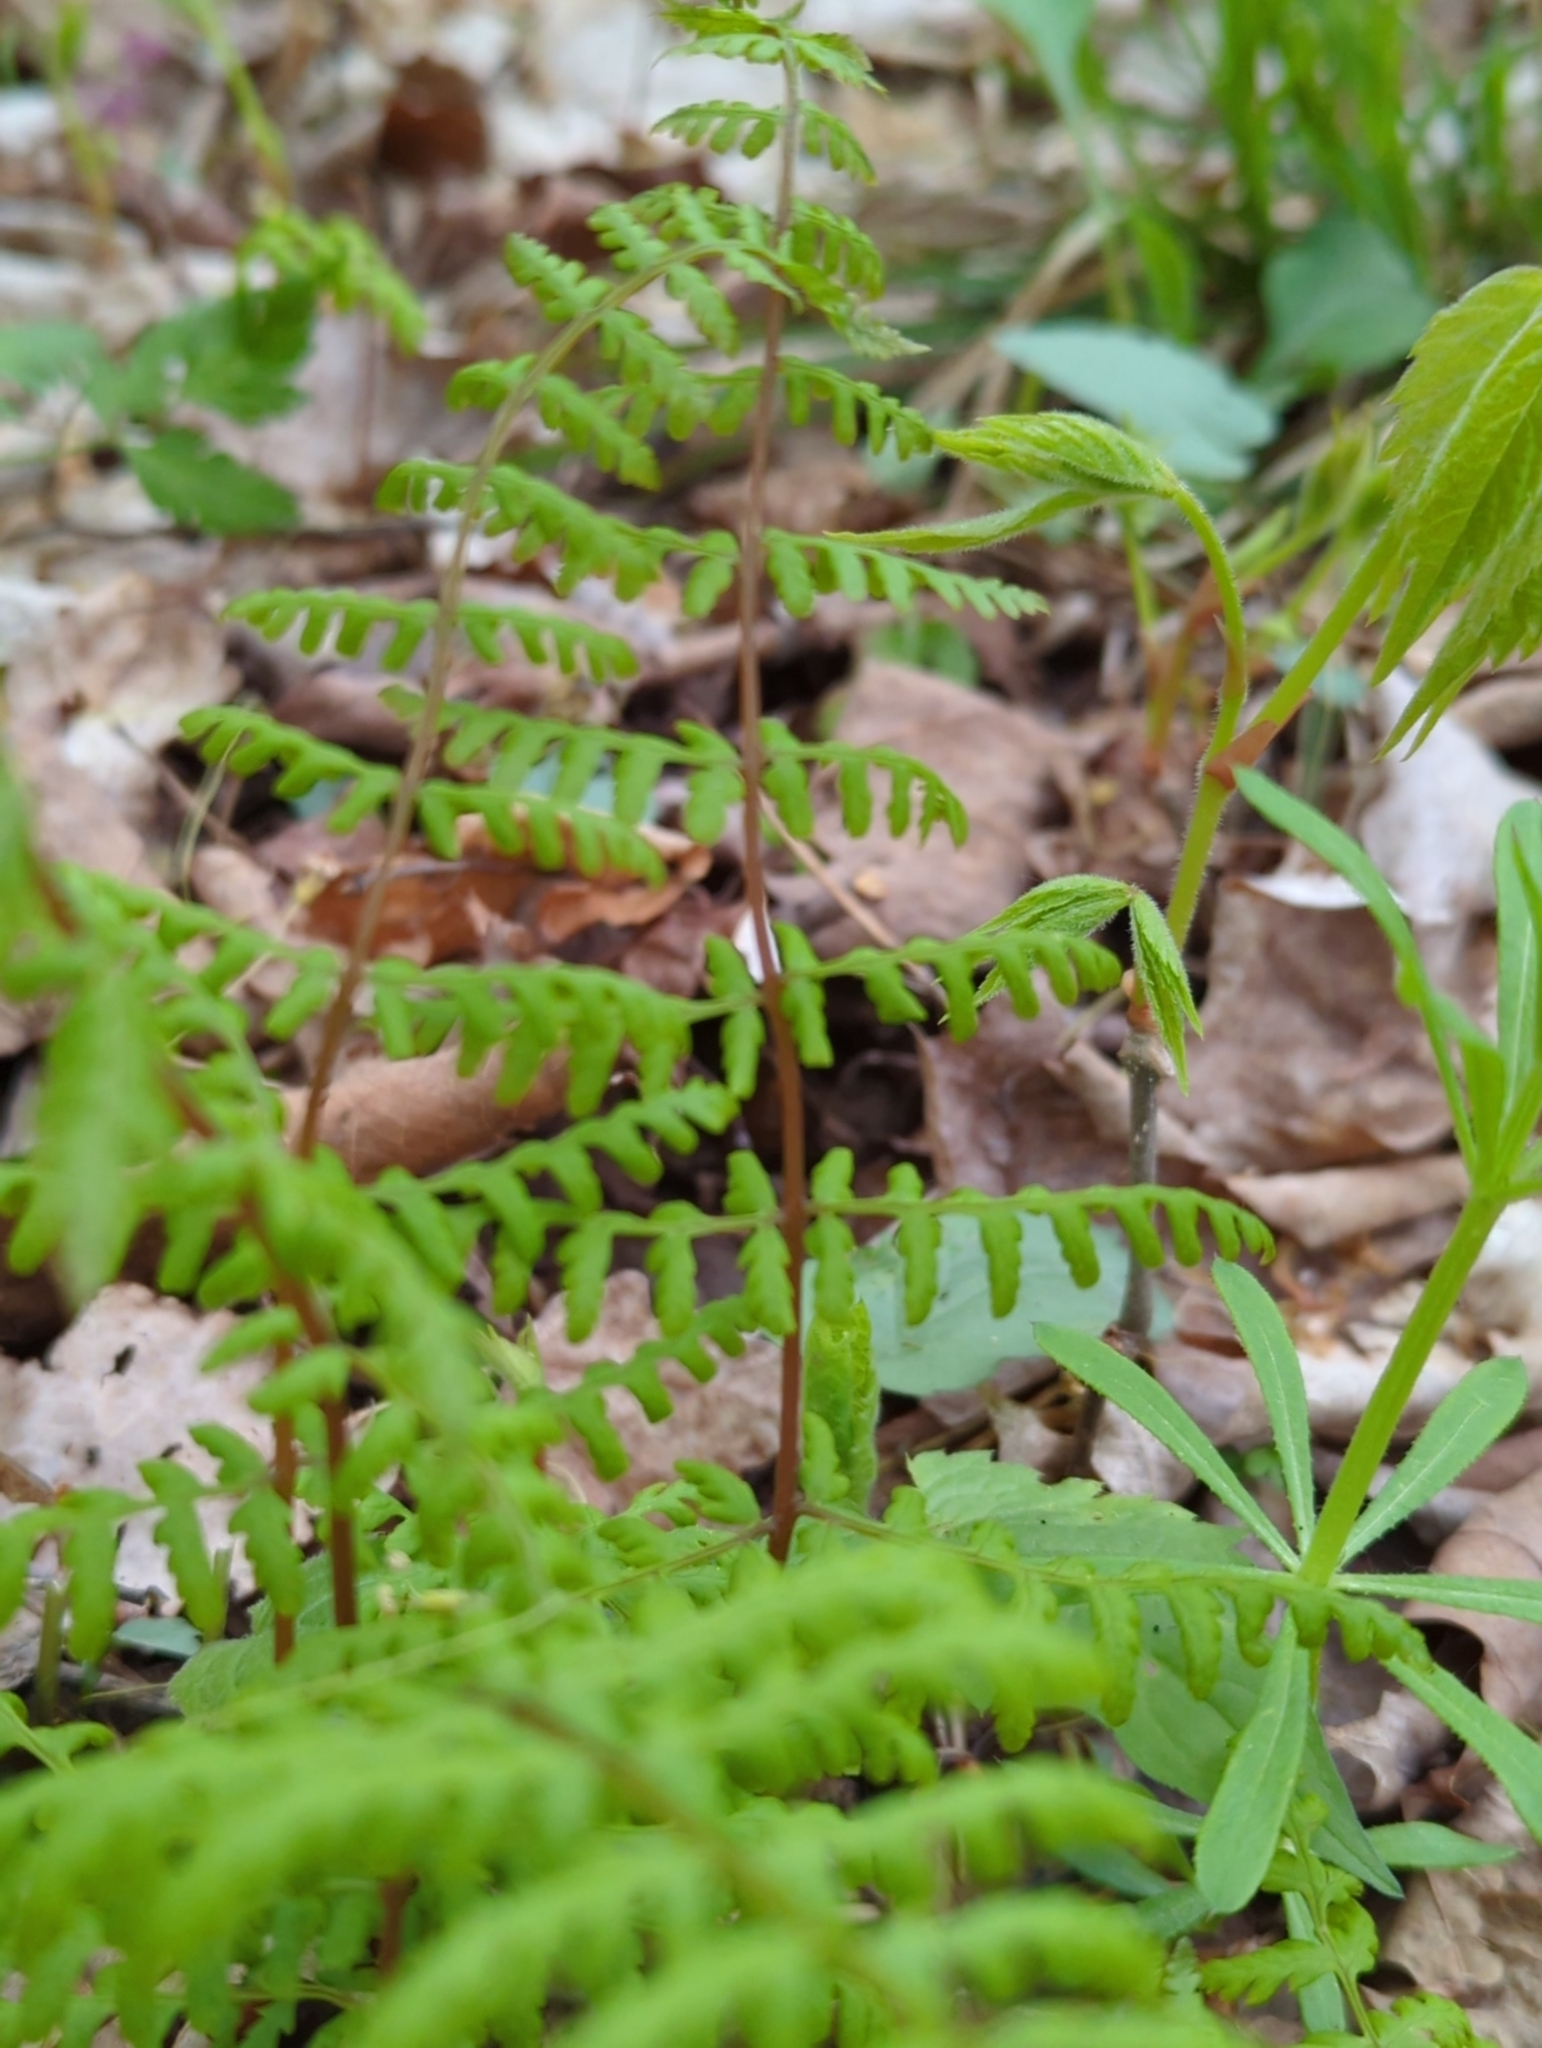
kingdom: Plantae
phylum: Tracheophyta
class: Polypodiopsida
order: Polypodiales
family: Cystopteridaceae
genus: Cystopteris
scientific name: Cystopteris bulbifera
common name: Bulblet bladder fern
